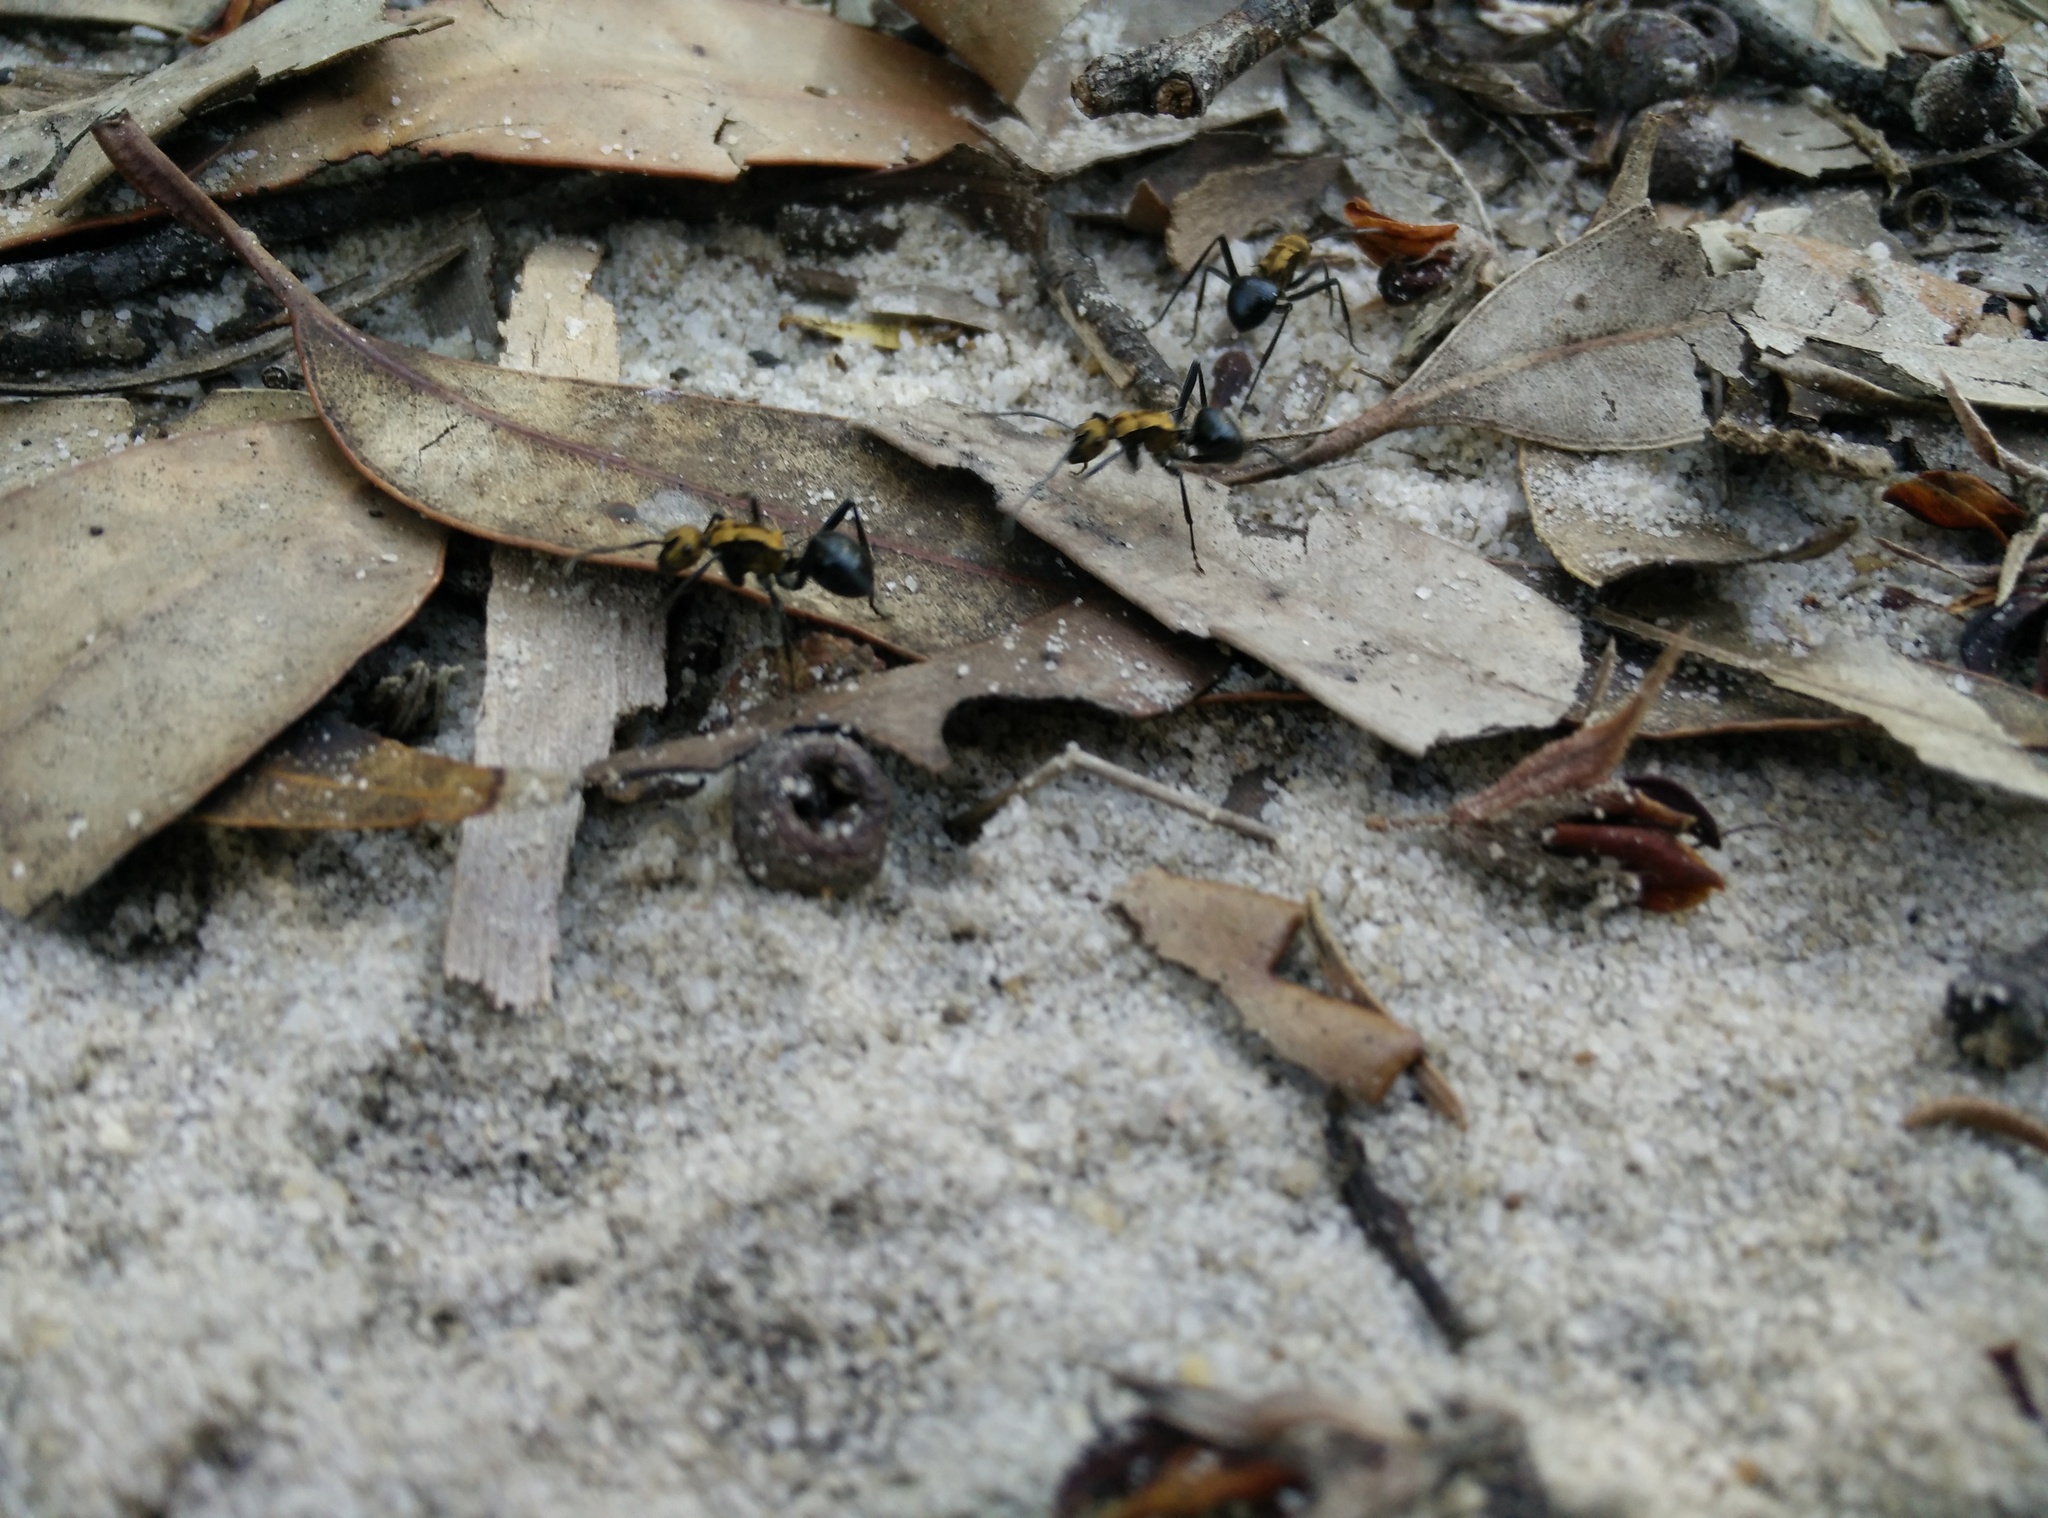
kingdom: Animalia
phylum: Arthropoda
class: Insecta
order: Hymenoptera
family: Formicidae
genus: Polyrhachis
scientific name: Polyrhachis semiaurata
